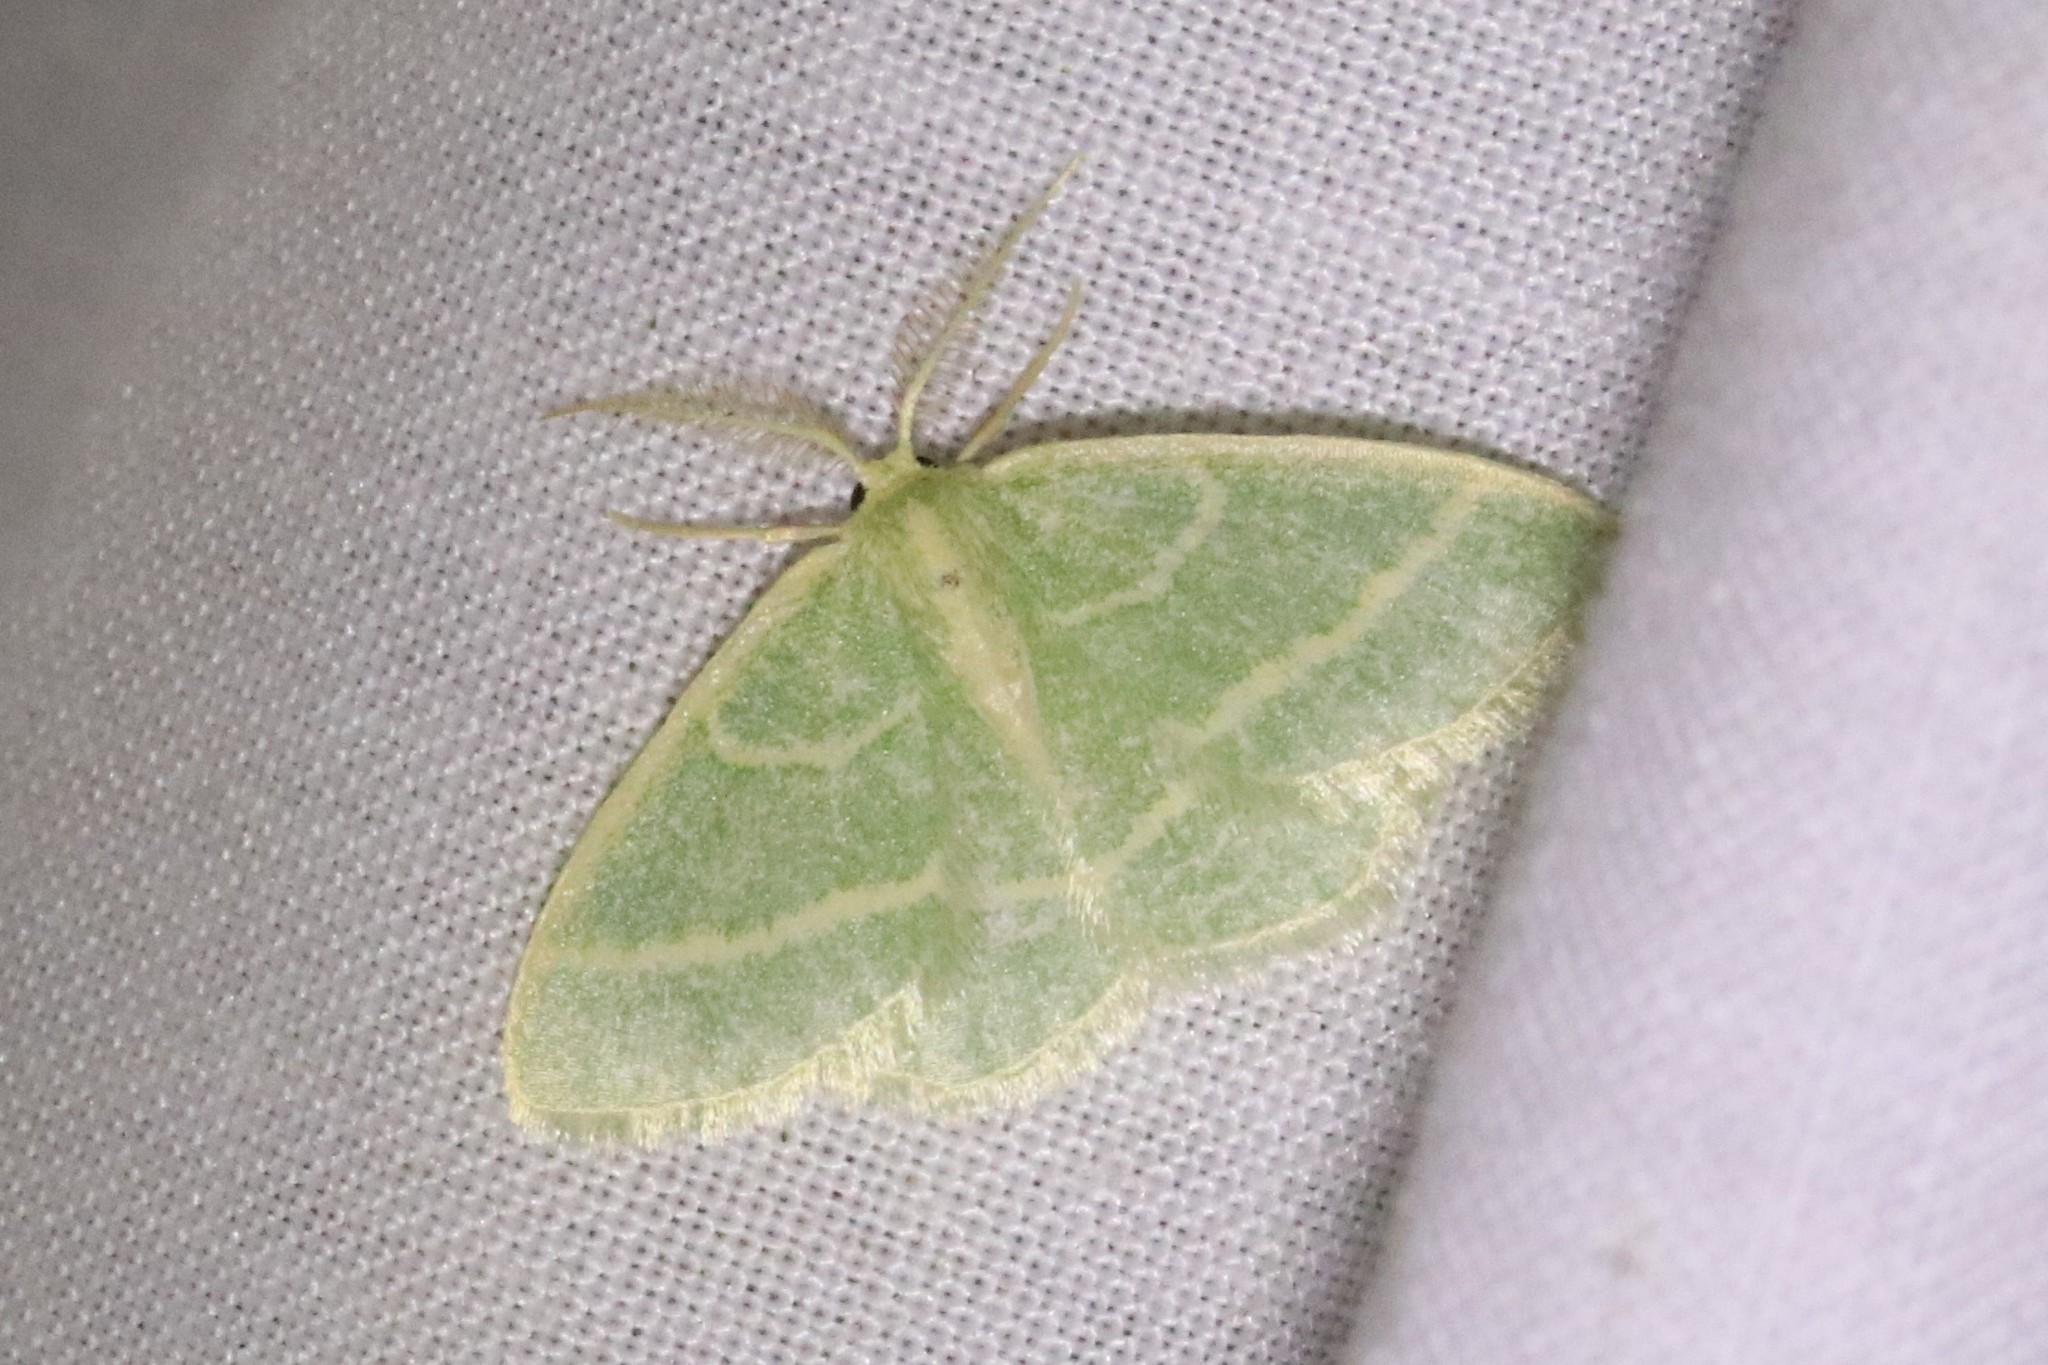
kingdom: Animalia
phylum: Arthropoda
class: Insecta
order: Lepidoptera
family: Geometridae
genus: Chlorochlamys
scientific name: Chlorochlamys chloroleucaria
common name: Blackberry looper
